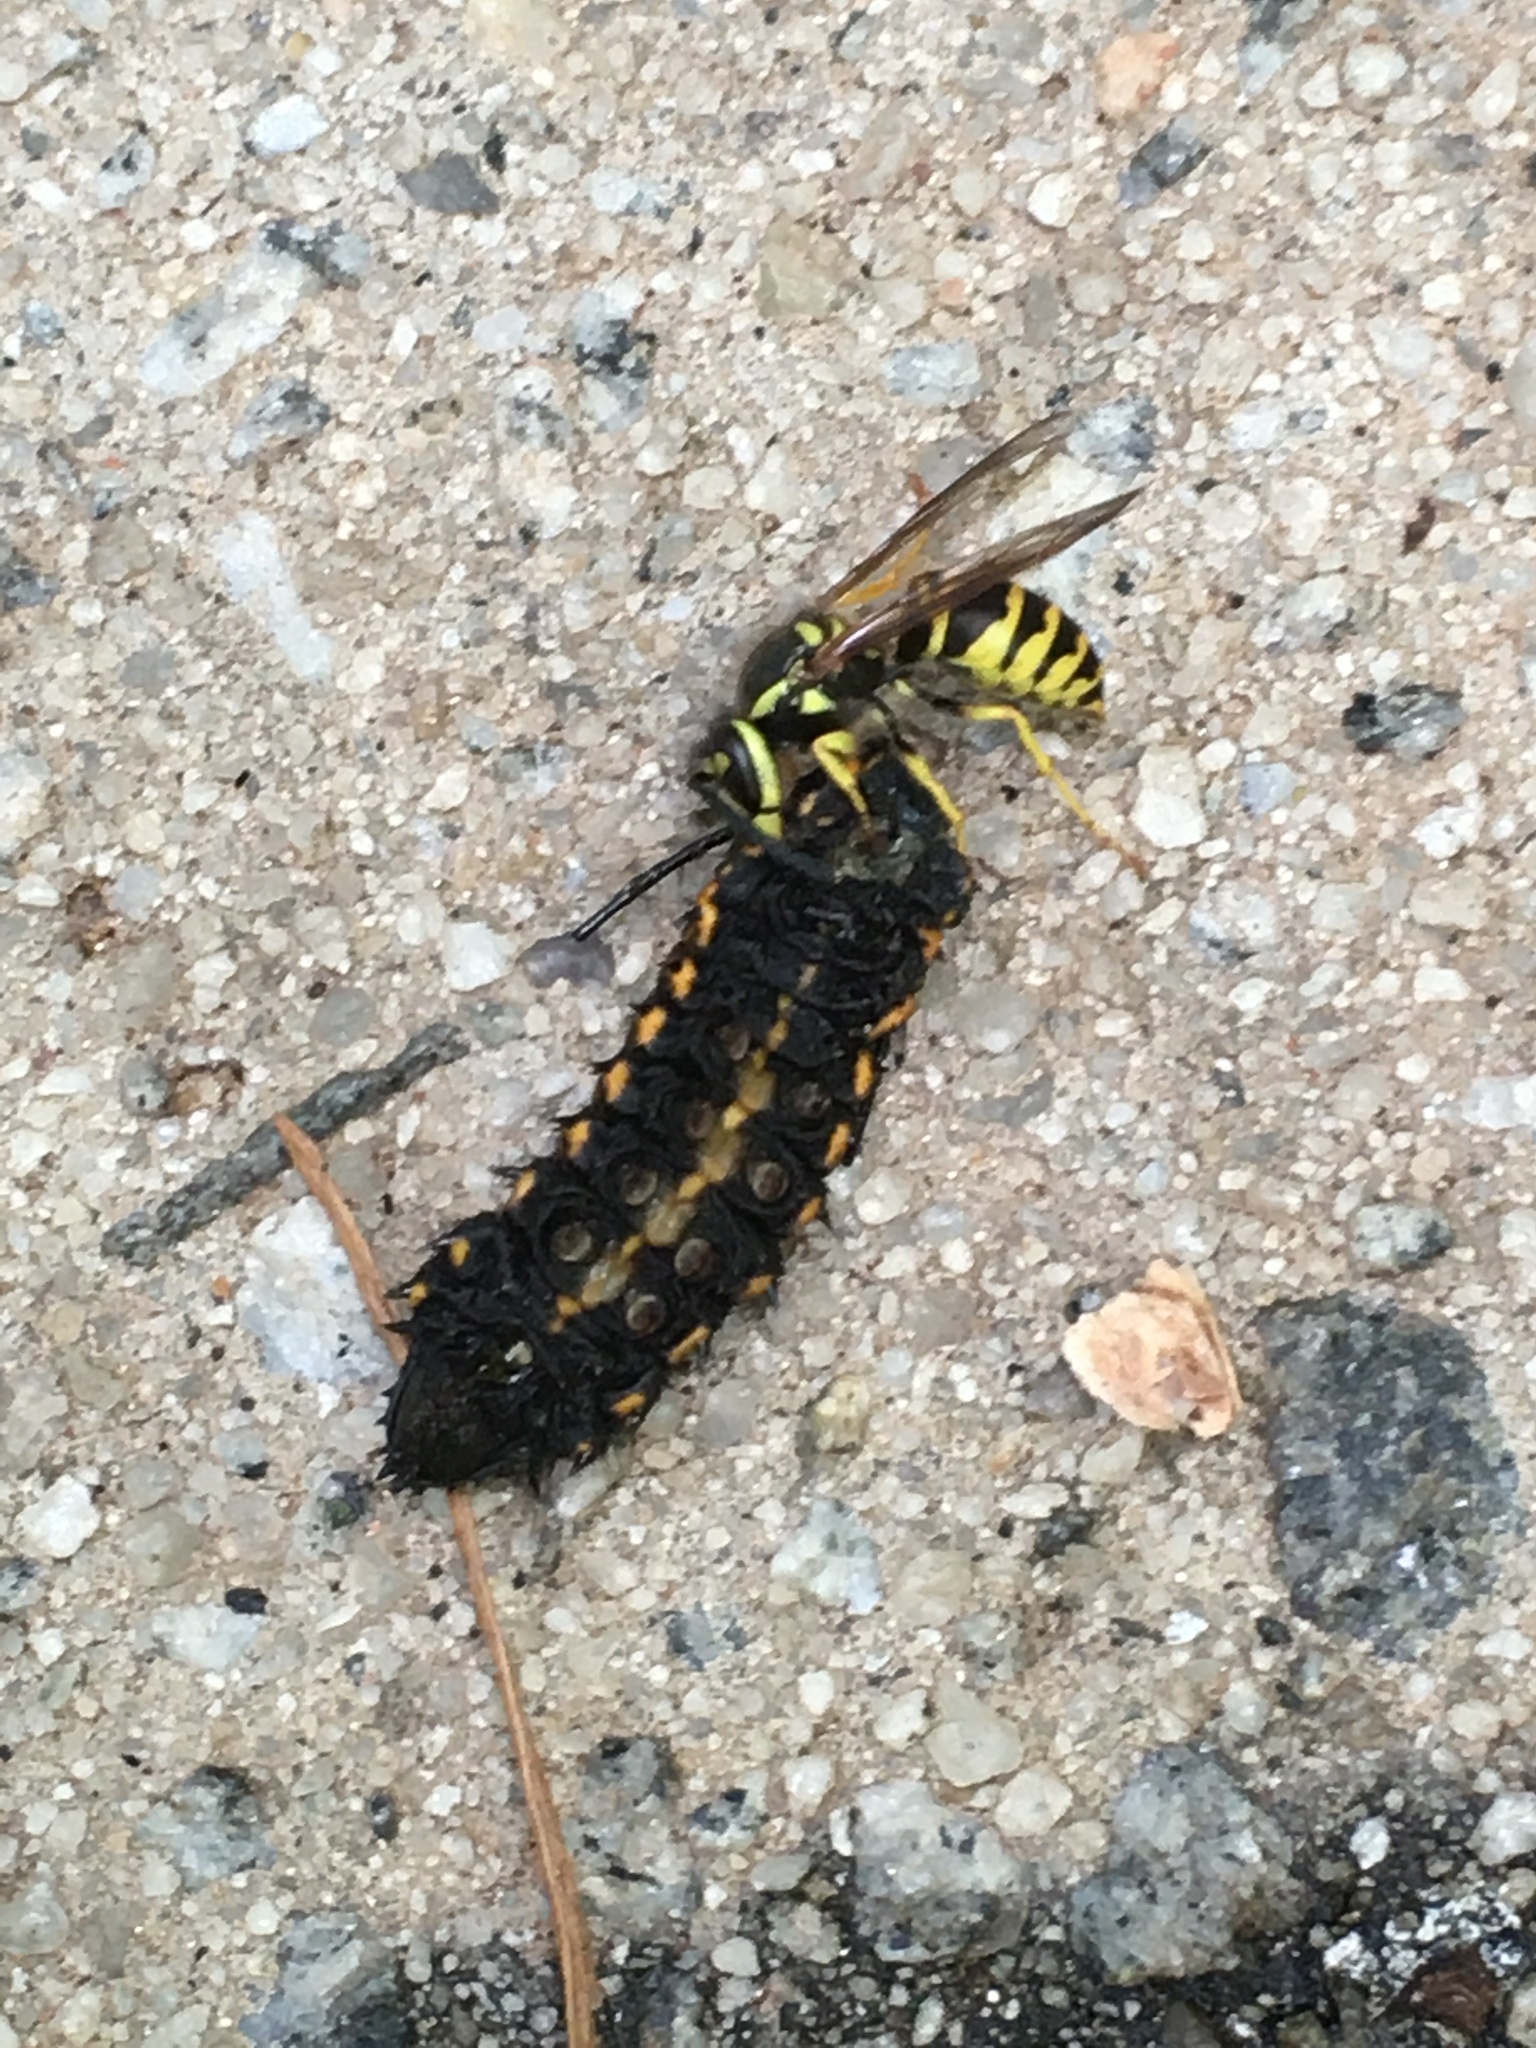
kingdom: Animalia
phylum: Arthropoda
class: Insecta
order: Hymenoptera
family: Vespidae
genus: Vespula
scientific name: Vespula maculifrons
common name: Eastern yellowjacket
